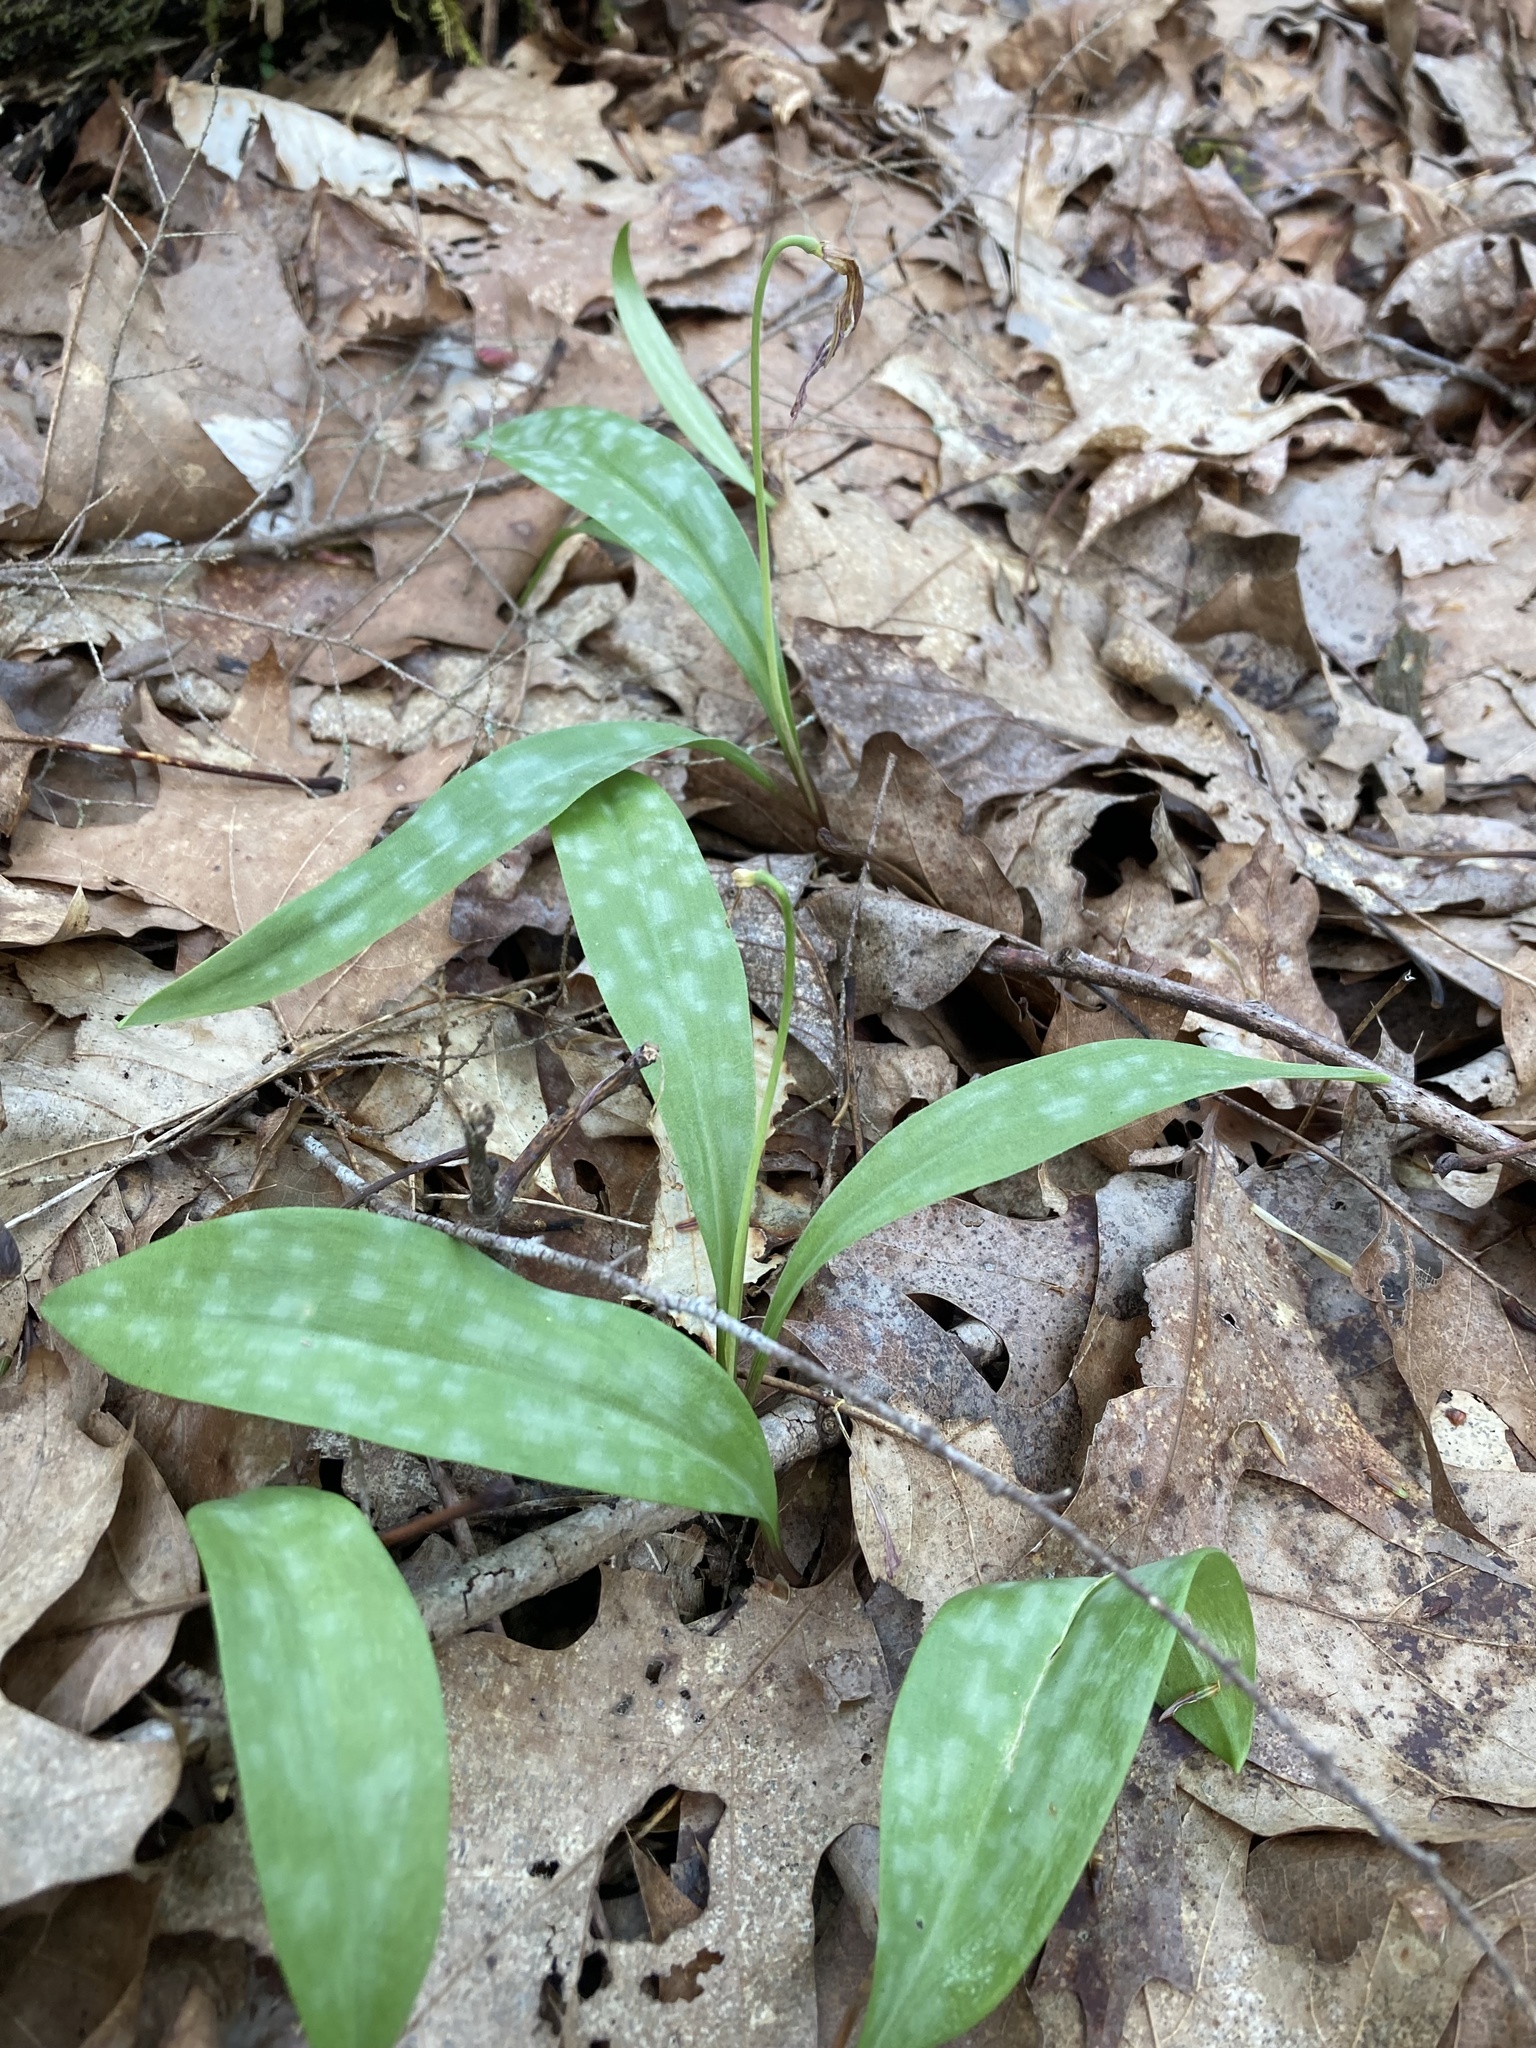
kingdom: Plantae
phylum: Tracheophyta
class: Liliopsida
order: Liliales
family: Liliaceae
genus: Erythronium
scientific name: Erythronium americanum
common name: Yellow adder's-tongue
